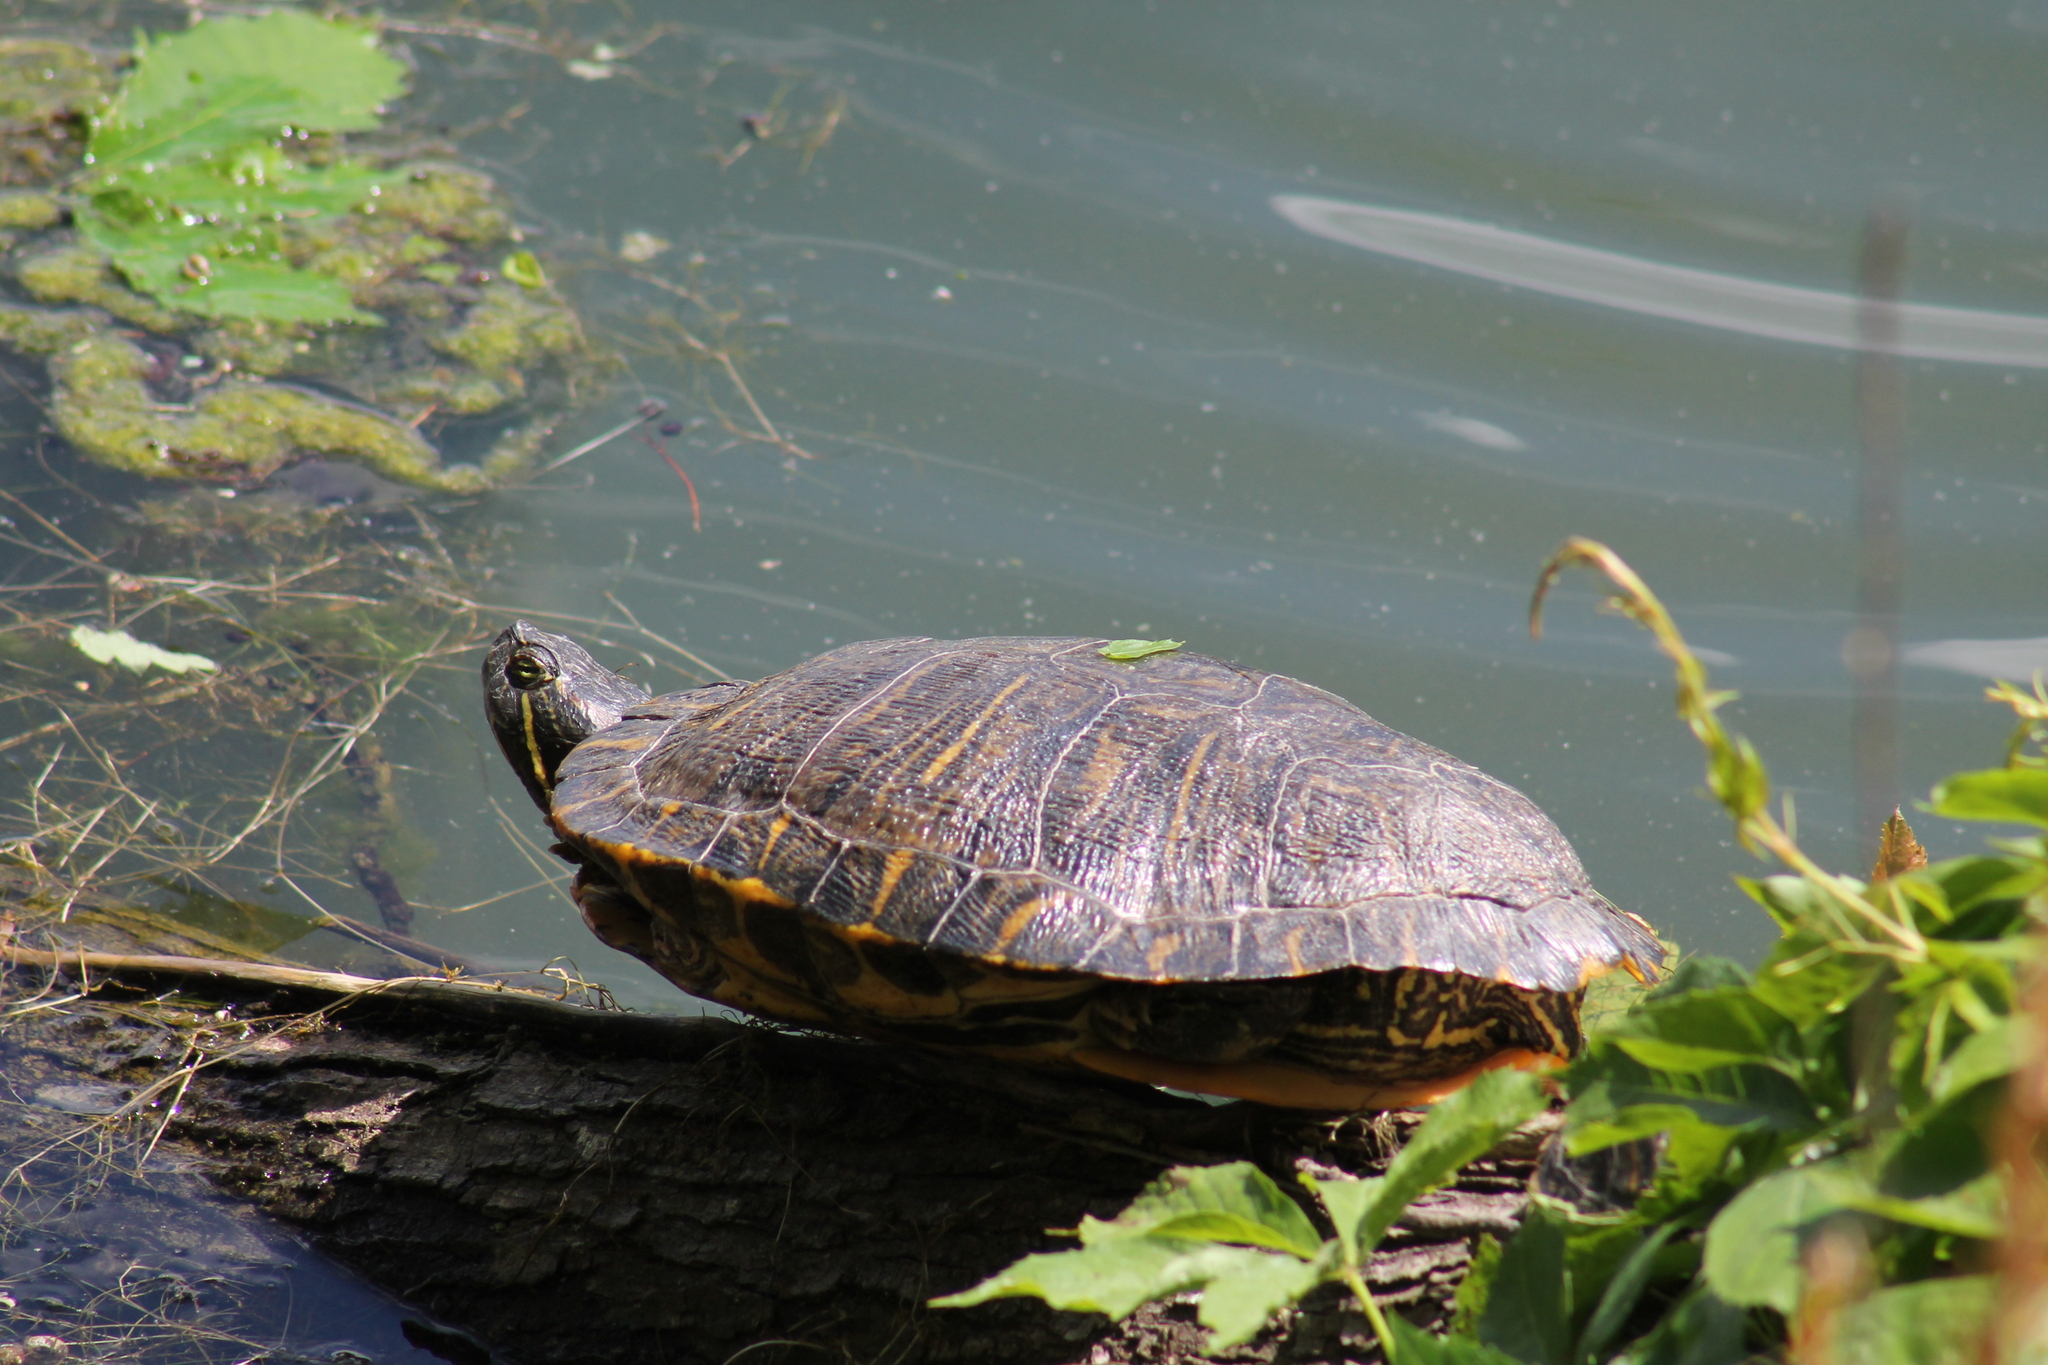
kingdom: Animalia
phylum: Chordata
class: Testudines
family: Emydidae
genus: Trachemys
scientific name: Trachemys scripta
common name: Slider
